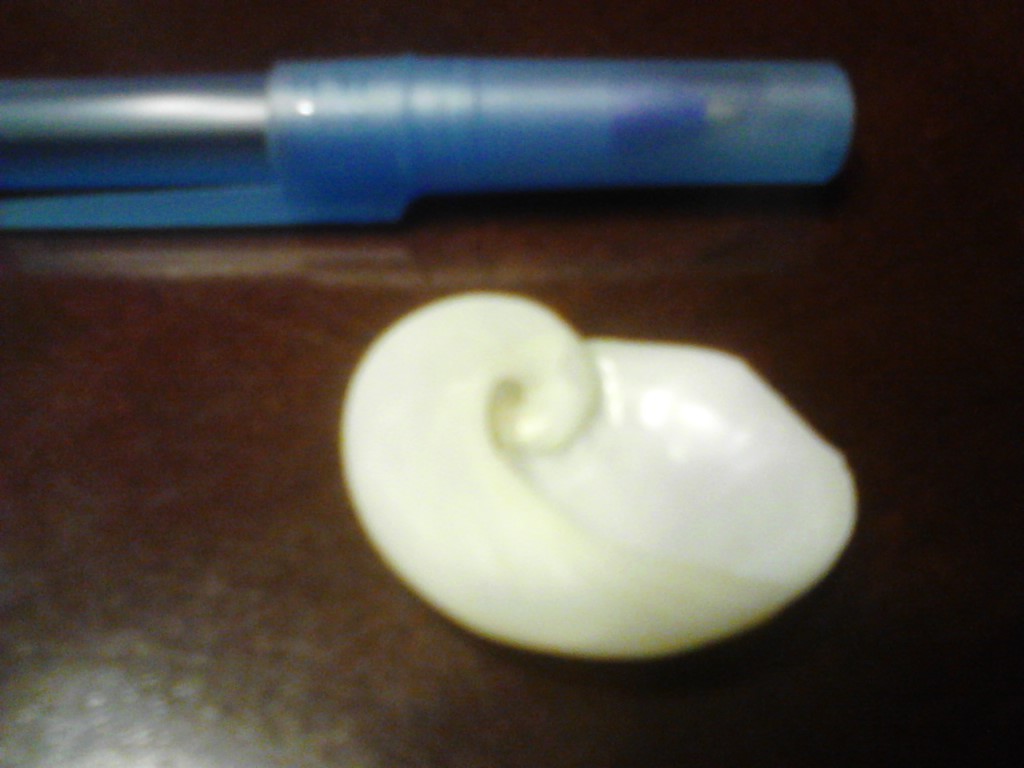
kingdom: Animalia
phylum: Mollusca
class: Gastropoda
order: Littorinimorpha
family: Naticidae
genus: Sinum
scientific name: Sinum perspectivum
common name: White baby ear
